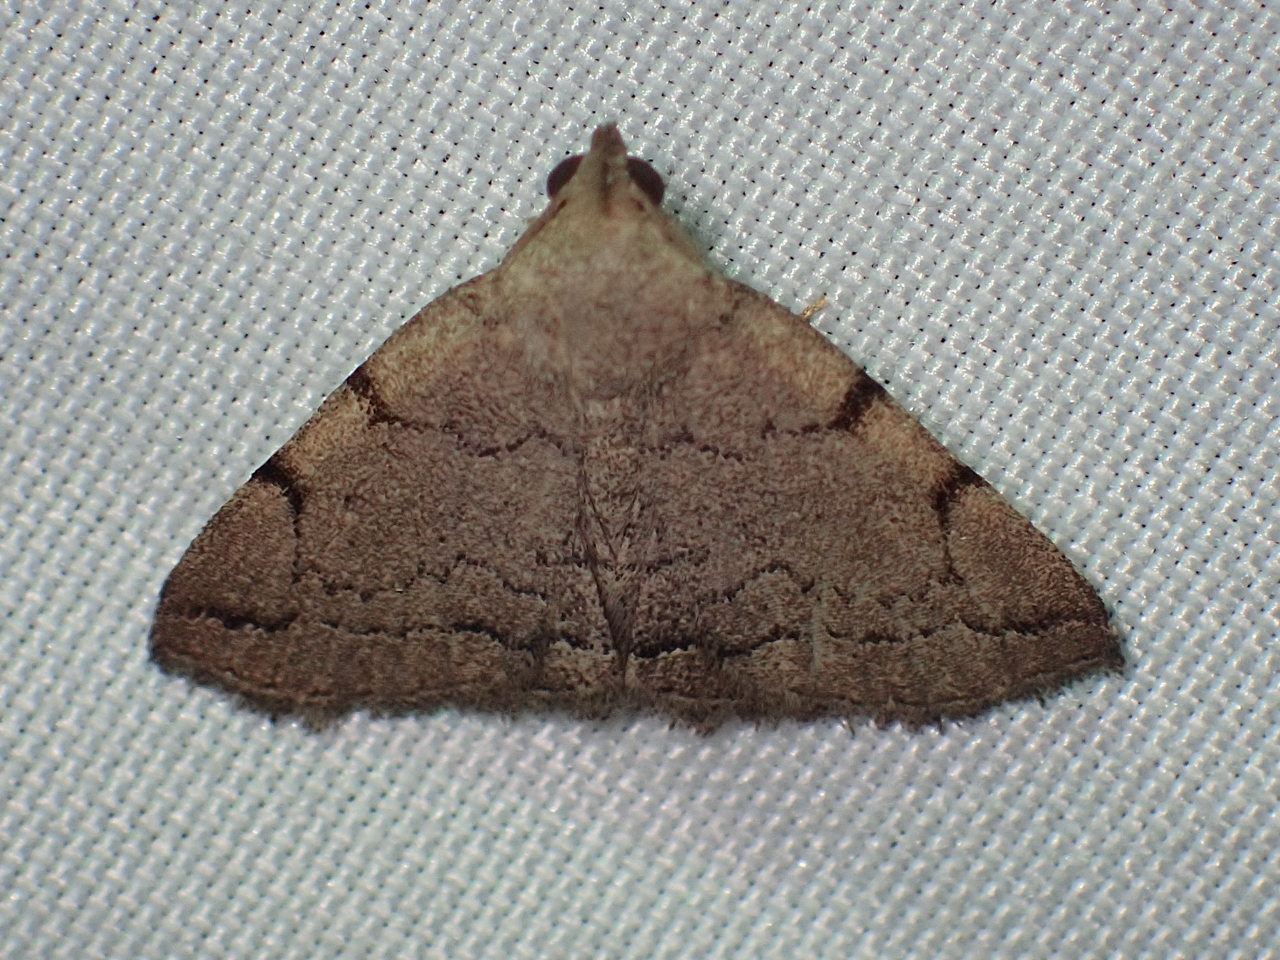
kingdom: Animalia
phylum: Arthropoda
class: Insecta
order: Lepidoptera
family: Erebidae
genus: Zanclognatha
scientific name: Zanclognatha theralis
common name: Flagged fan-foot
